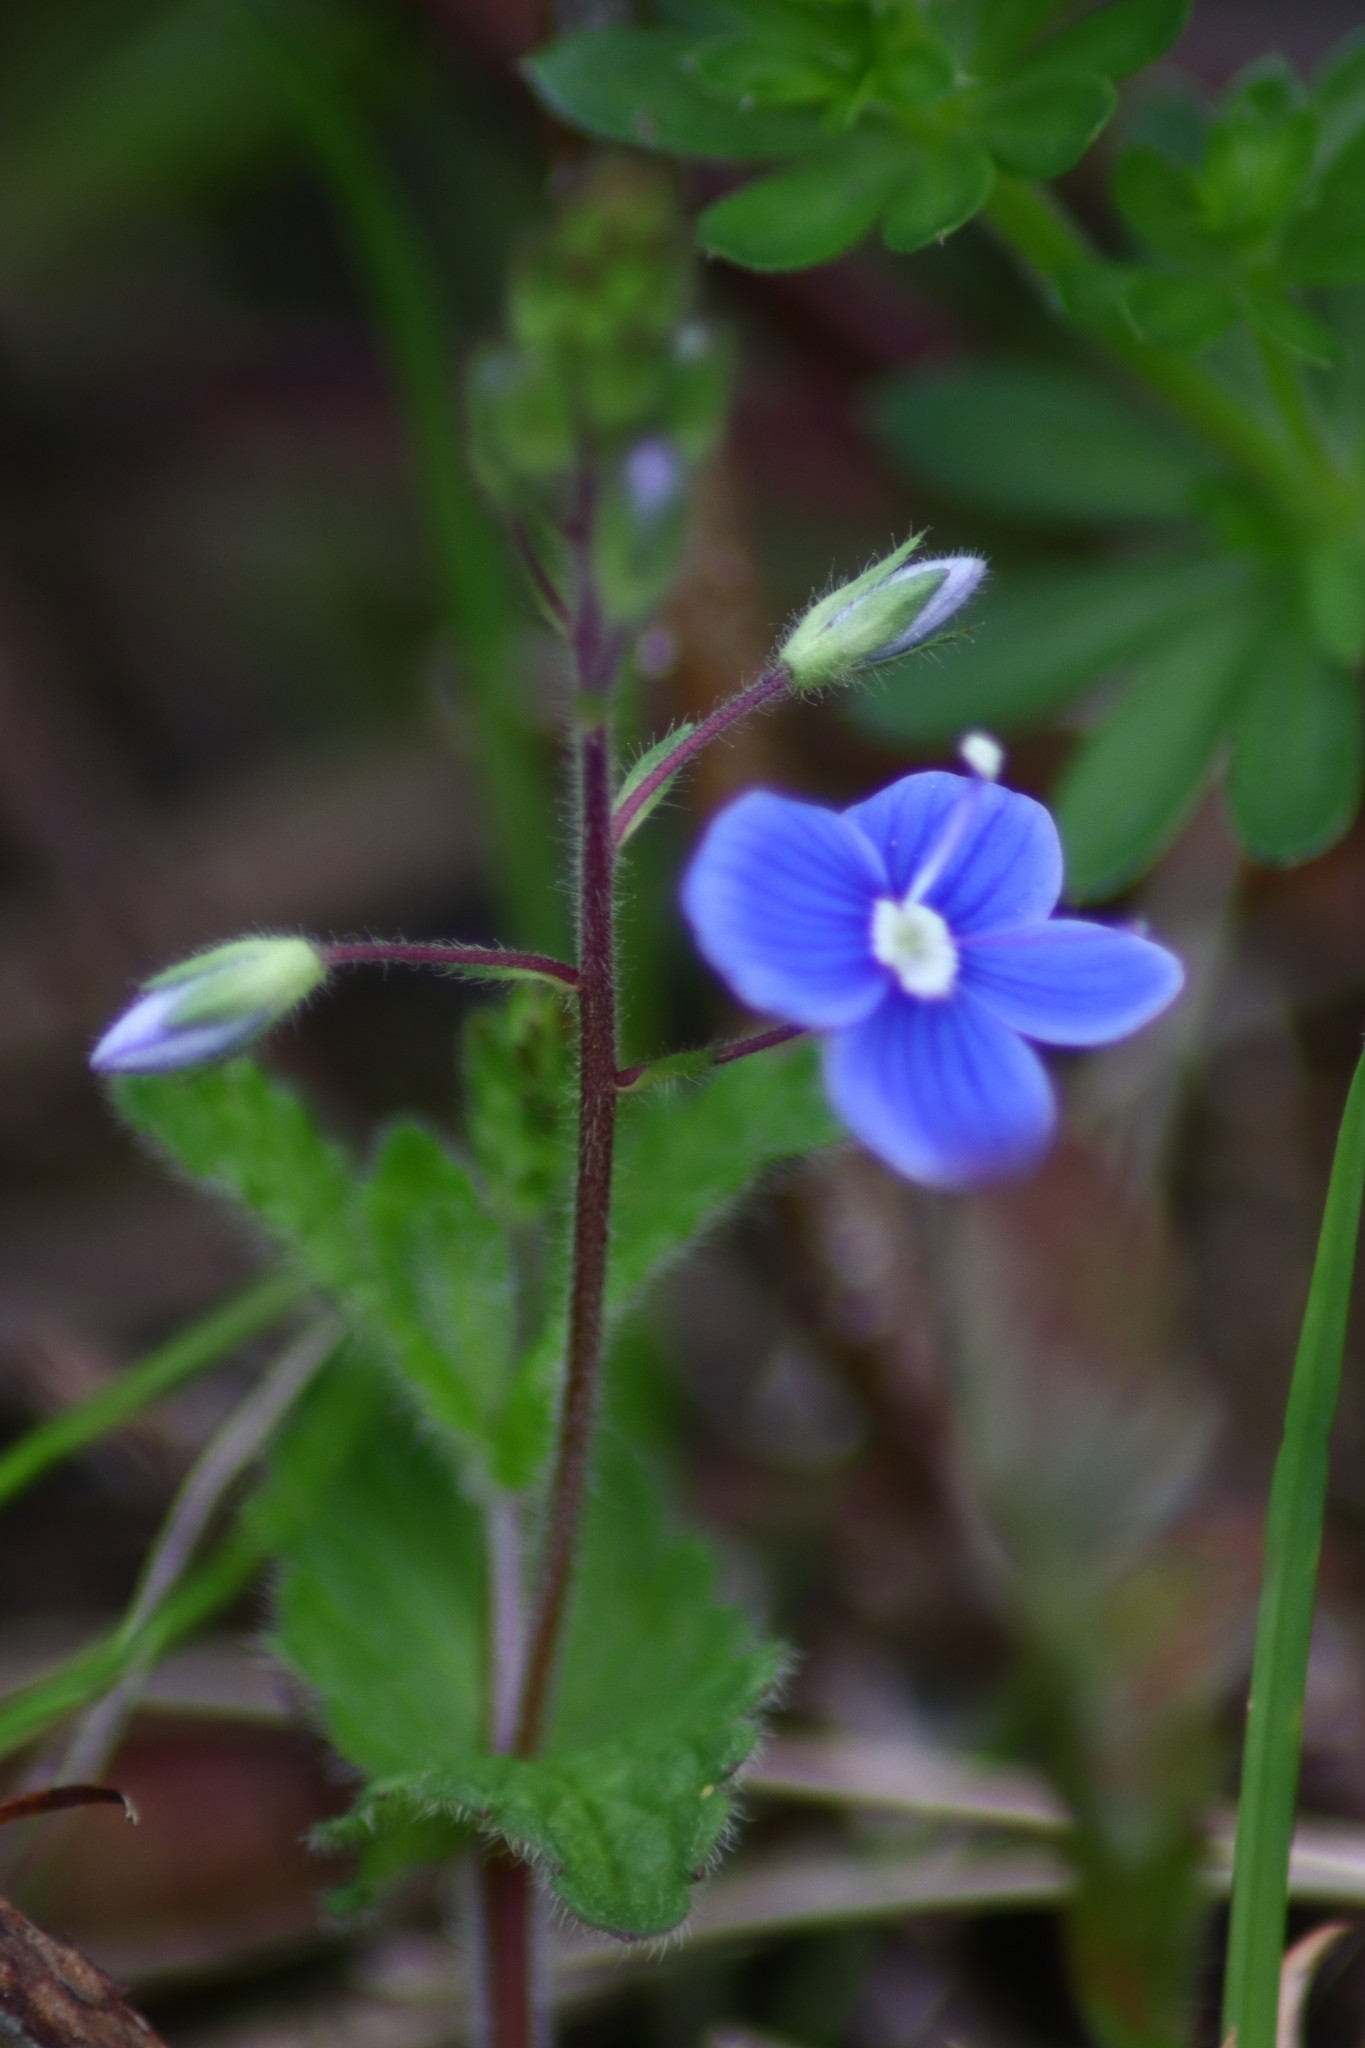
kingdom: Plantae
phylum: Tracheophyta
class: Magnoliopsida
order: Lamiales
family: Plantaginaceae
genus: Veronica
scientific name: Veronica chamaedrys
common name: Germander speedwell
